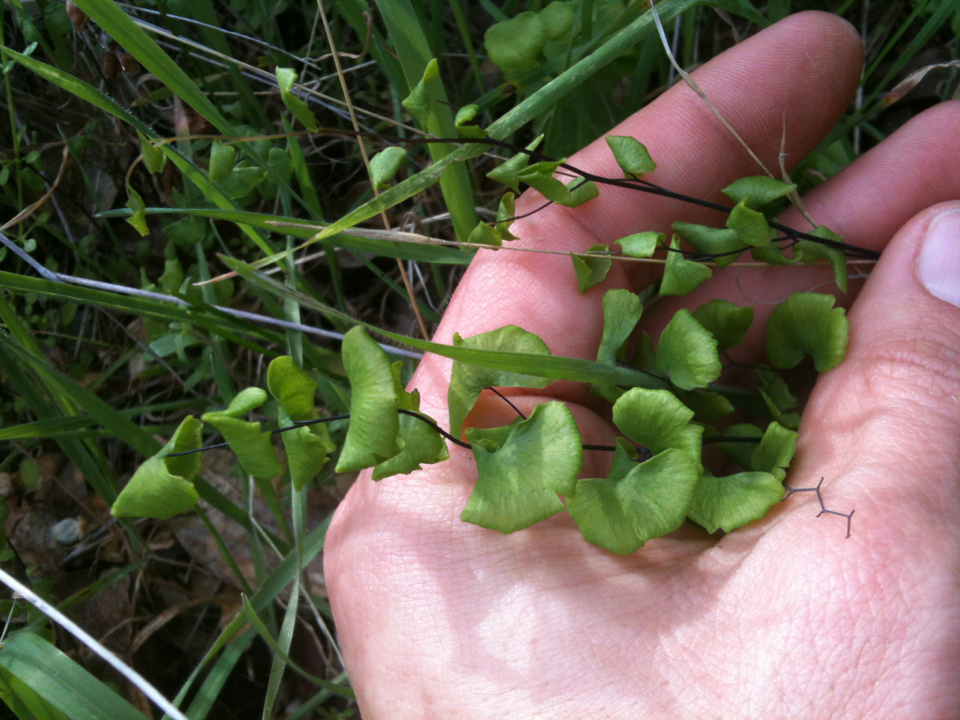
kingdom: Plantae
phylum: Tracheophyta
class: Polypodiopsida
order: Polypodiales
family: Pteridaceae
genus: Adiantum
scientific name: Adiantum jordanii
